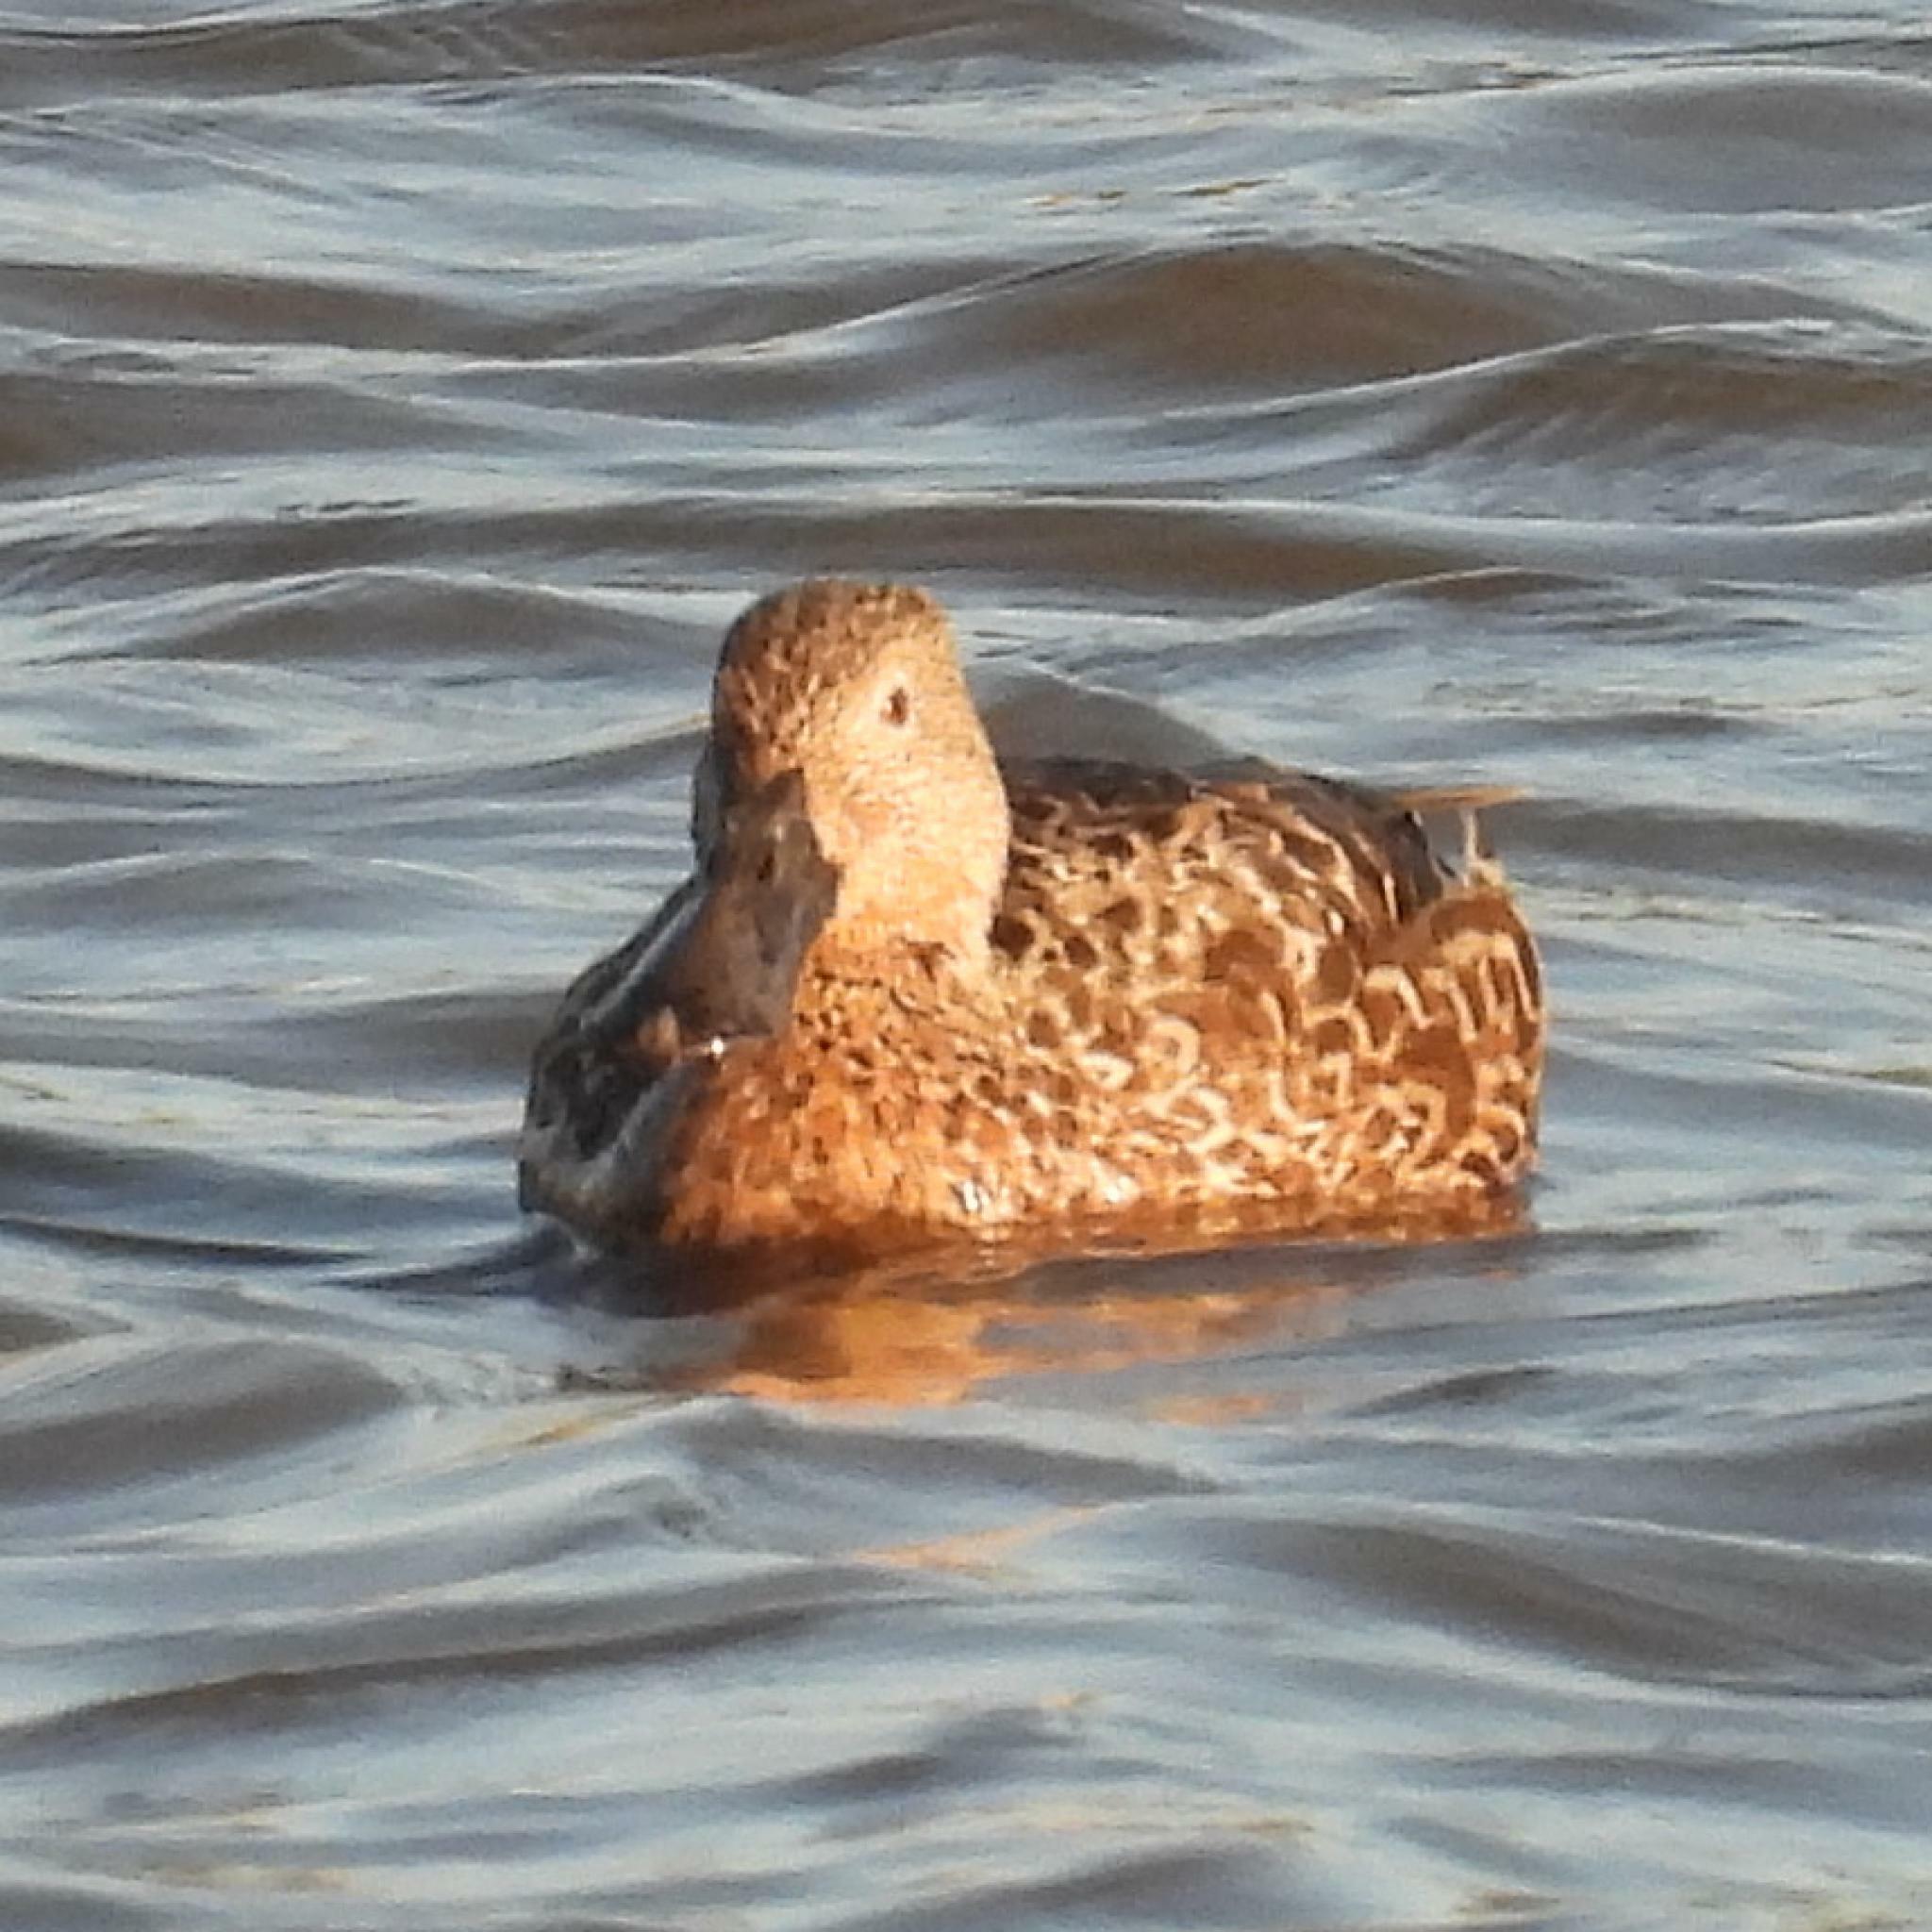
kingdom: Animalia
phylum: Chordata
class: Aves
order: Anseriformes
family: Anatidae
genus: Spatula
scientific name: Spatula smithii
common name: Cape shoveler
